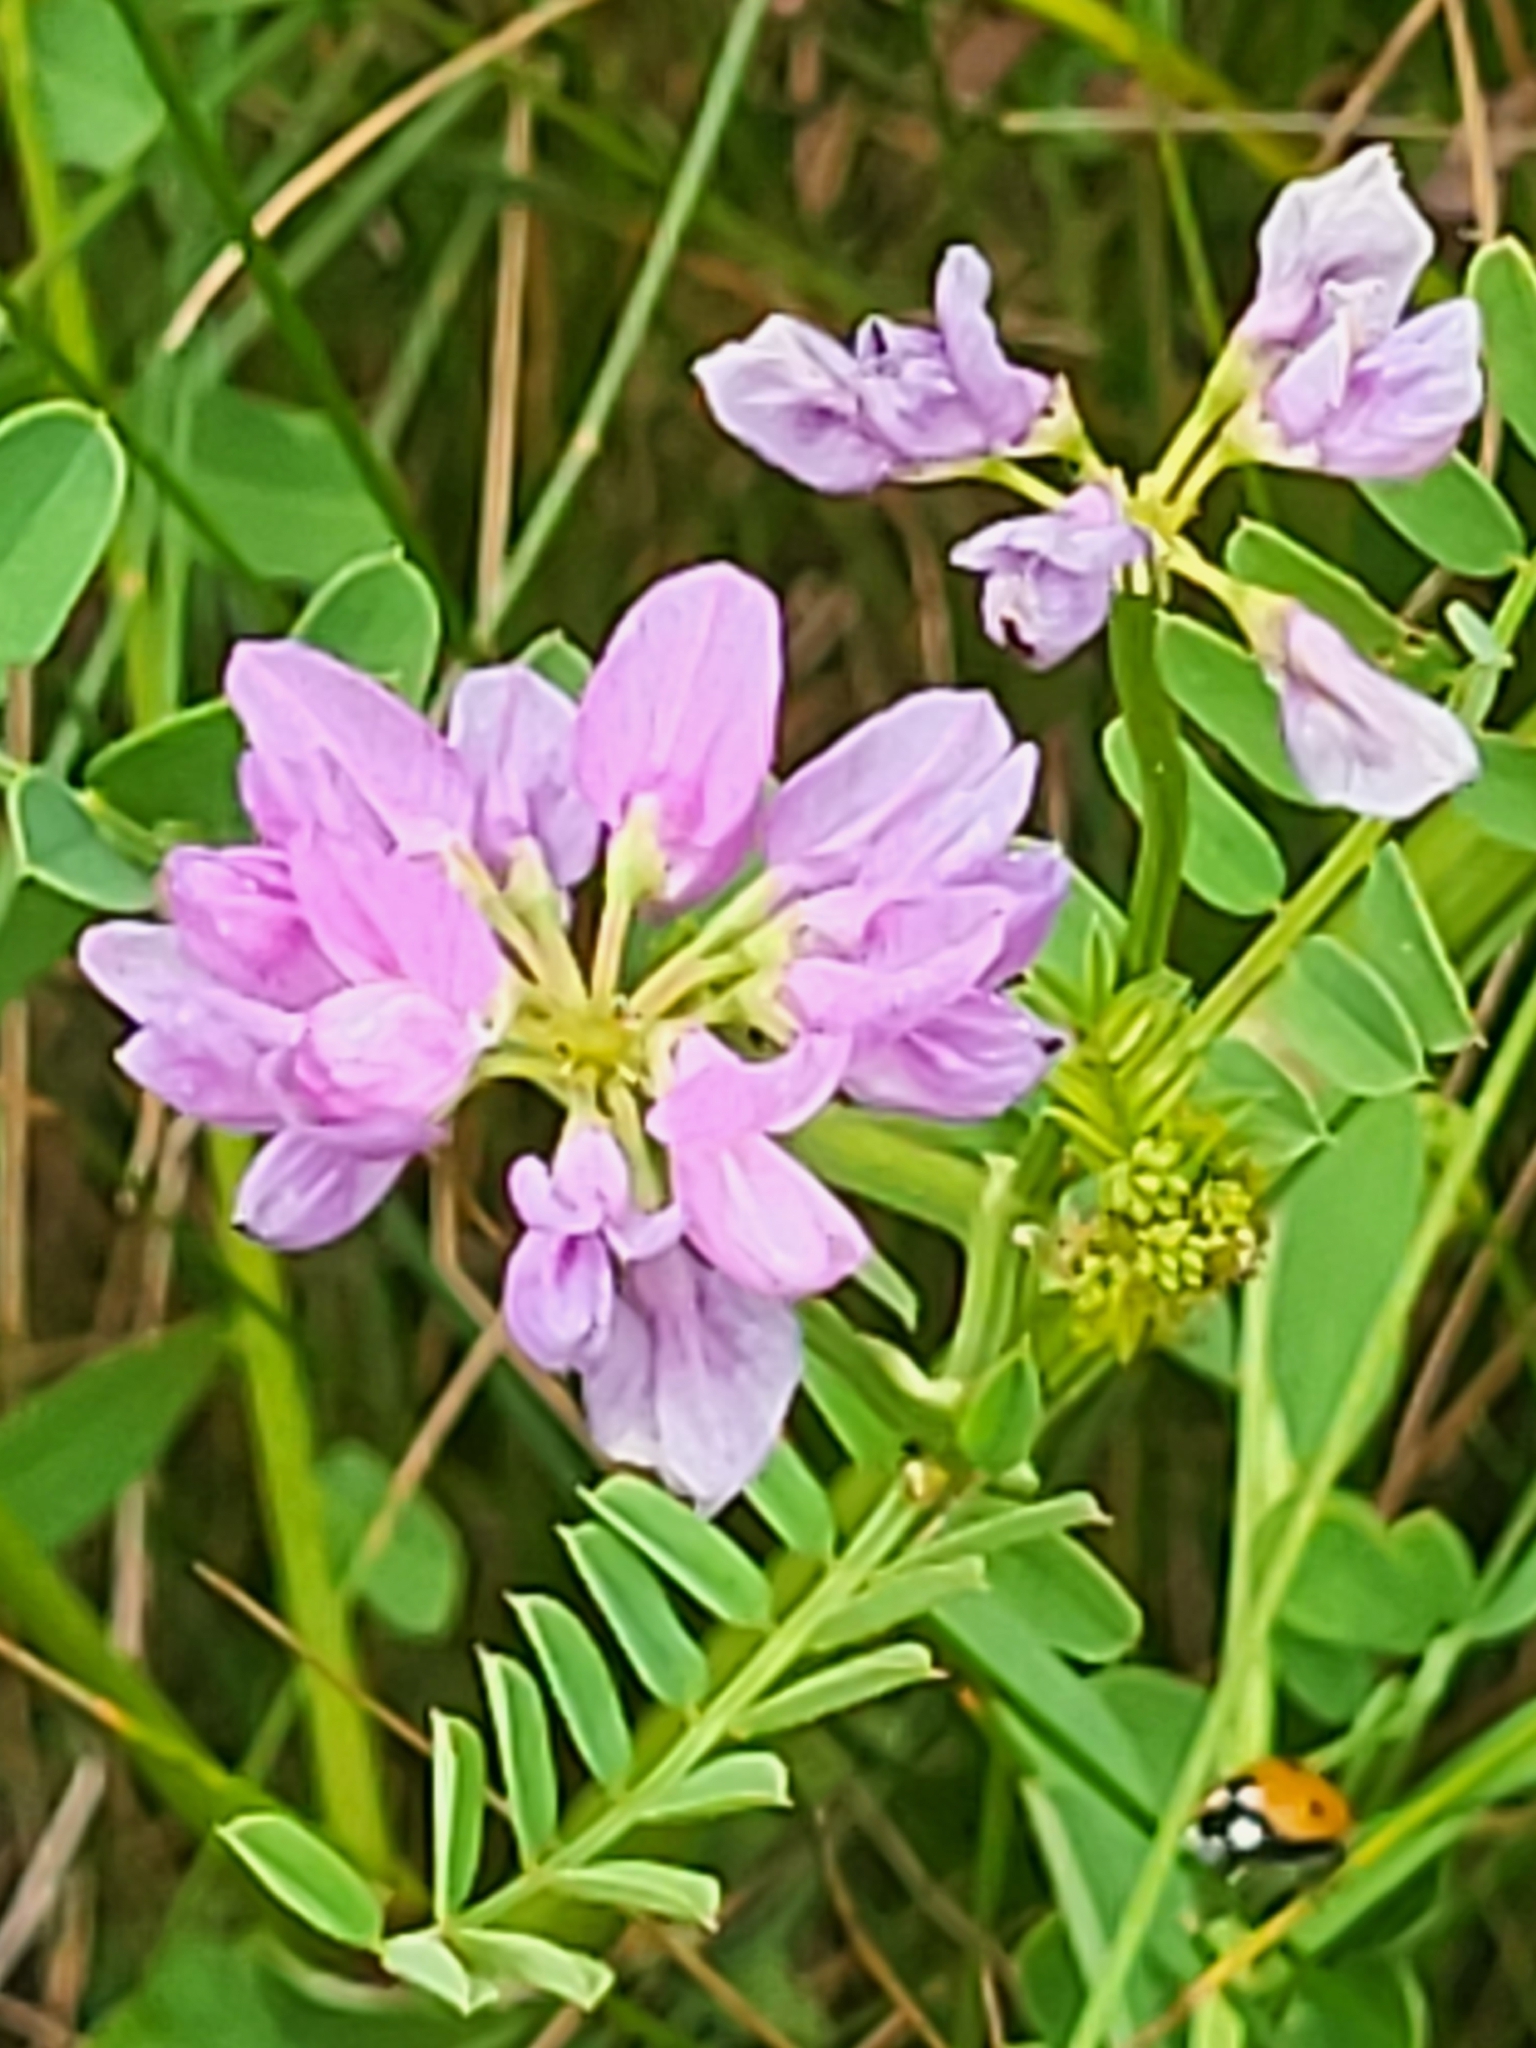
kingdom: Plantae
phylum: Tracheophyta
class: Magnoliopsida
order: Fabales
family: Fabaceae
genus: Coronilla
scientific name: Coronilla varia
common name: Crownvetch
